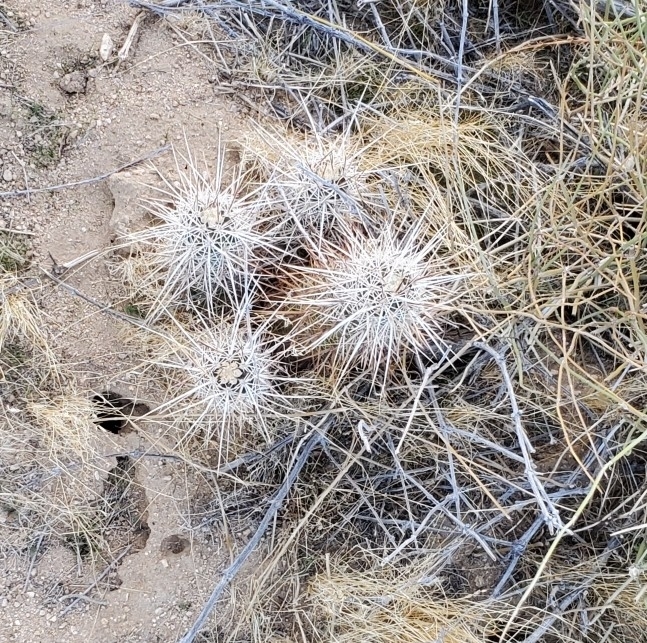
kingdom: Plantae
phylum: Tracheophyta
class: Magnoliopsida
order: Caryophyllales
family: Cactaceae
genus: Echinocereus
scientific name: Echinocereus engelmannii
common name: Engelmann's hedgehog cactus
